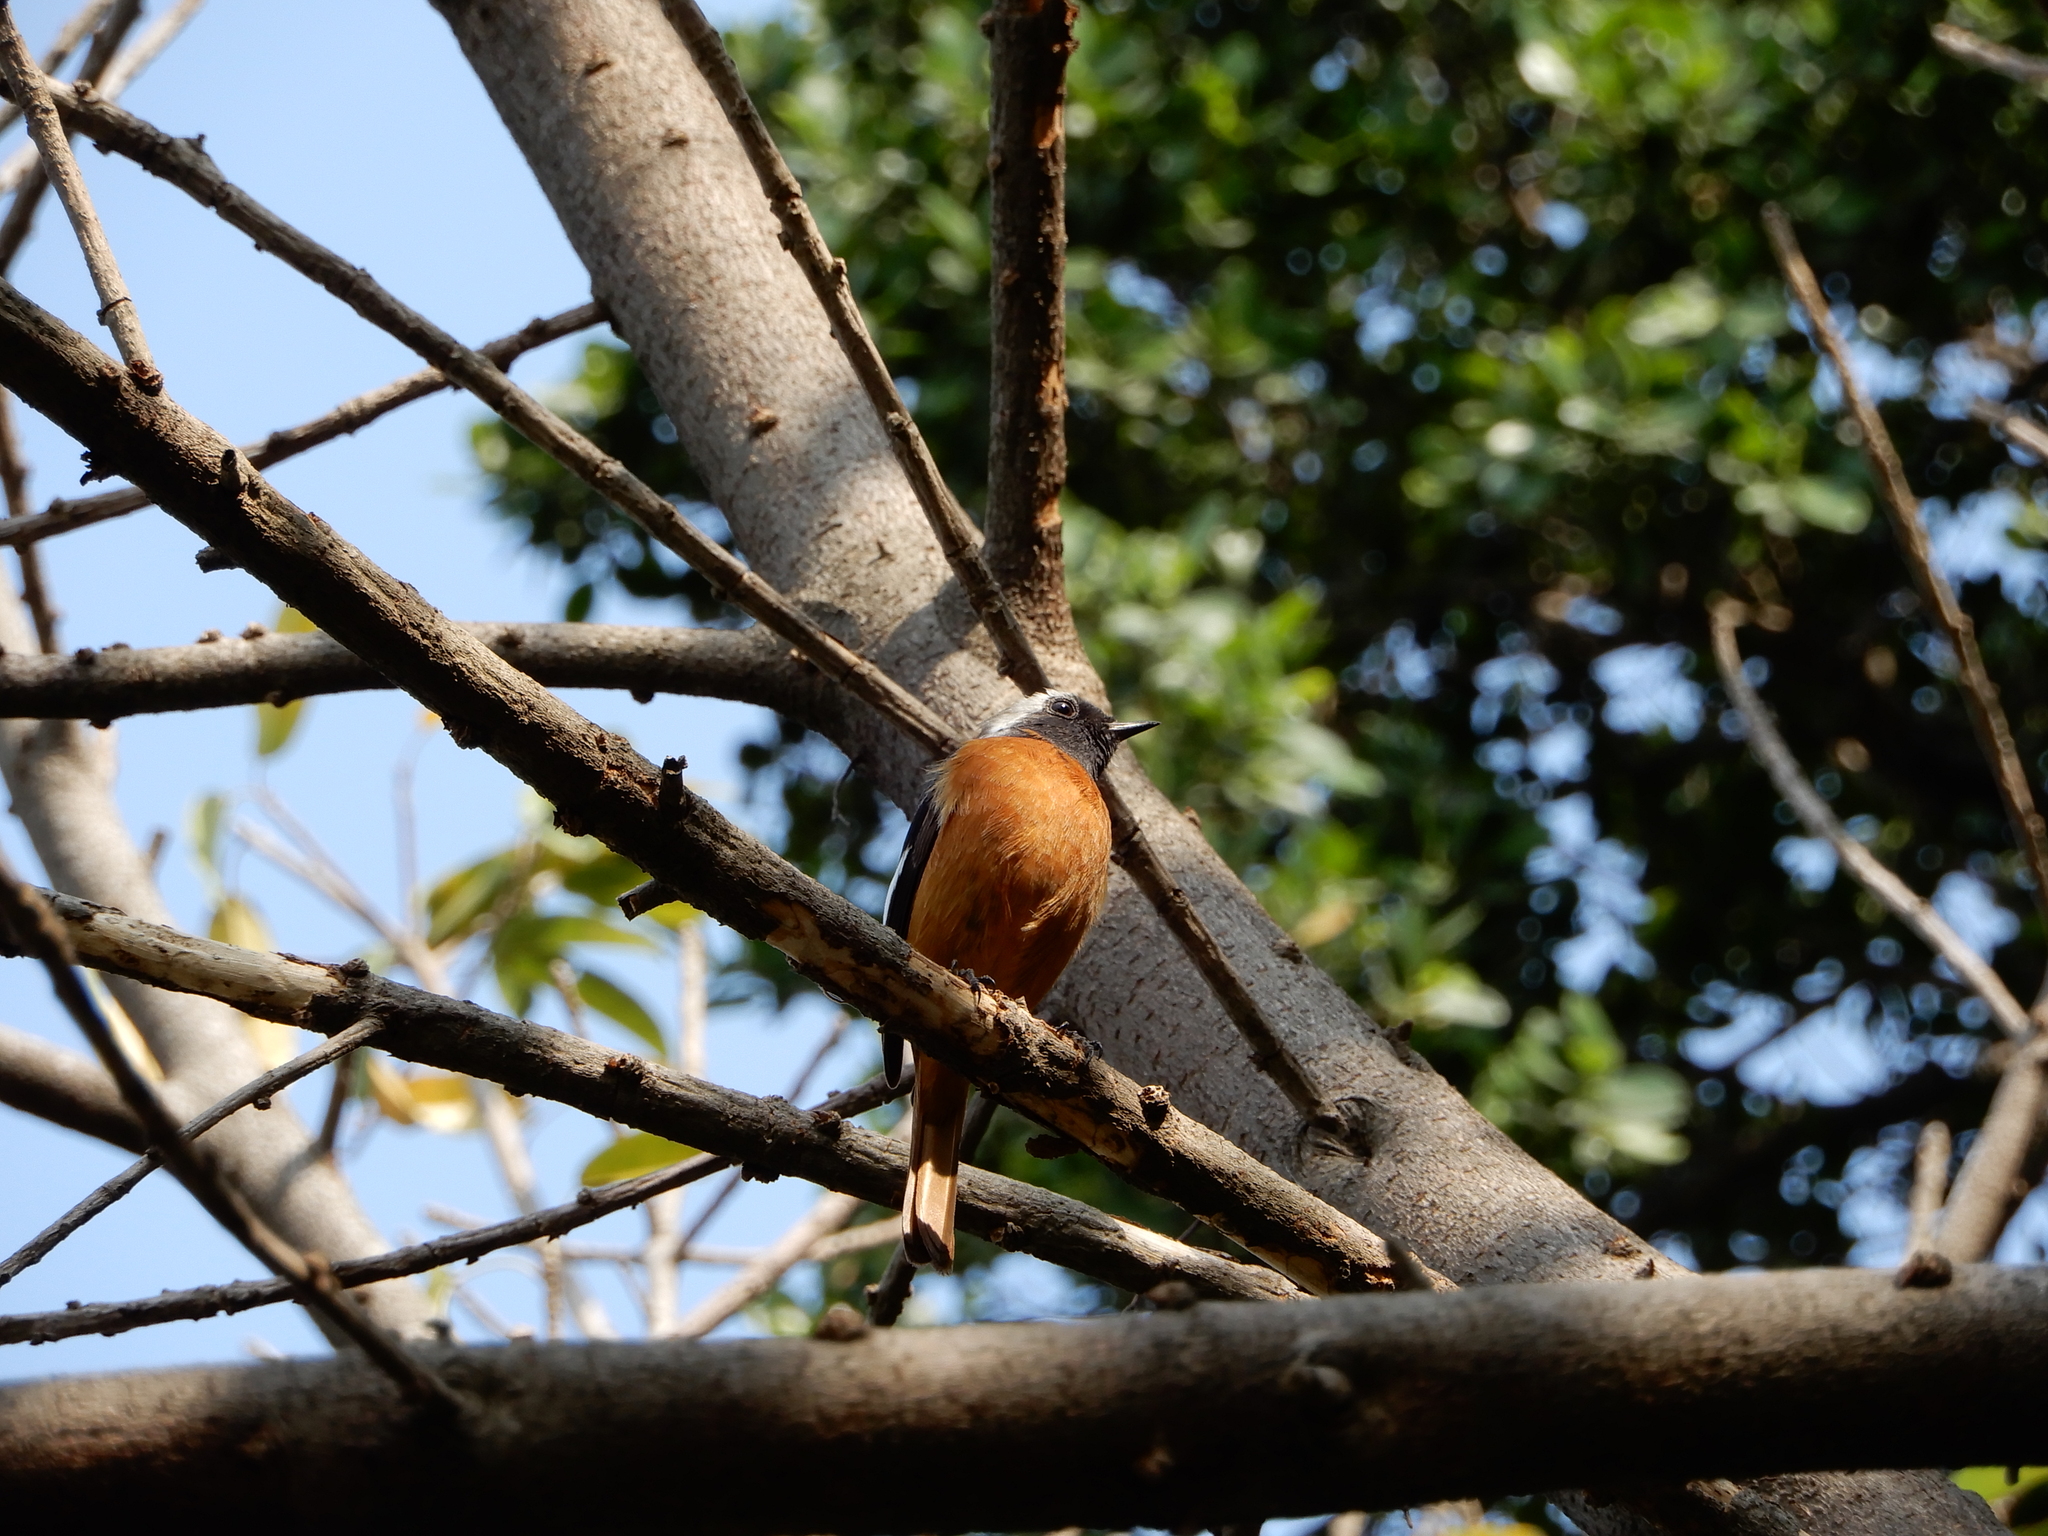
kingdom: Animalia
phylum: Chordata
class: Aves
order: Passeriformes
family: Muscicapidae
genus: Phoenicurus
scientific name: Phoenicurus auroreus
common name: Daurian redstart
